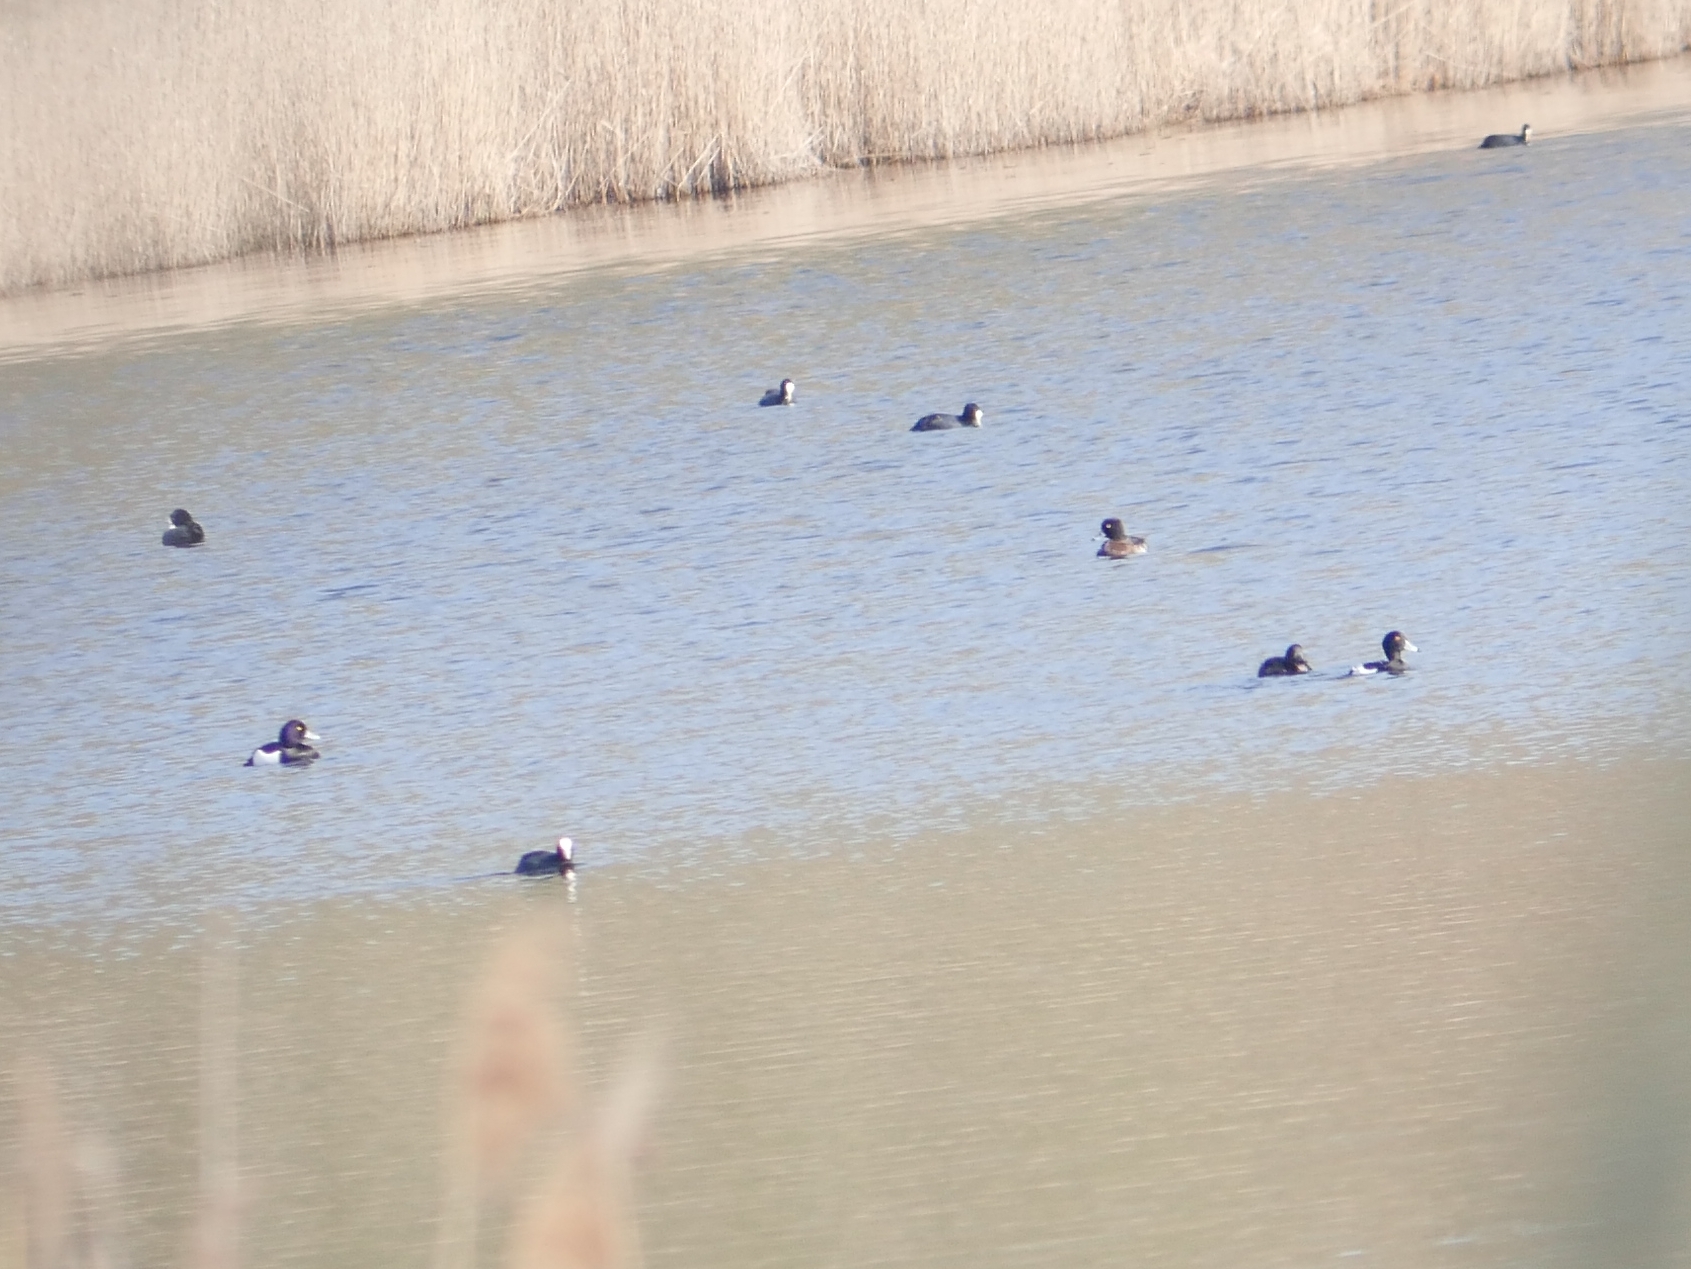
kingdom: Animalia
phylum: Chordata
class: Aves
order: Anseriformes
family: Anatidae
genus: Aythya
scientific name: Aythya fuligula
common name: Tufted duck
